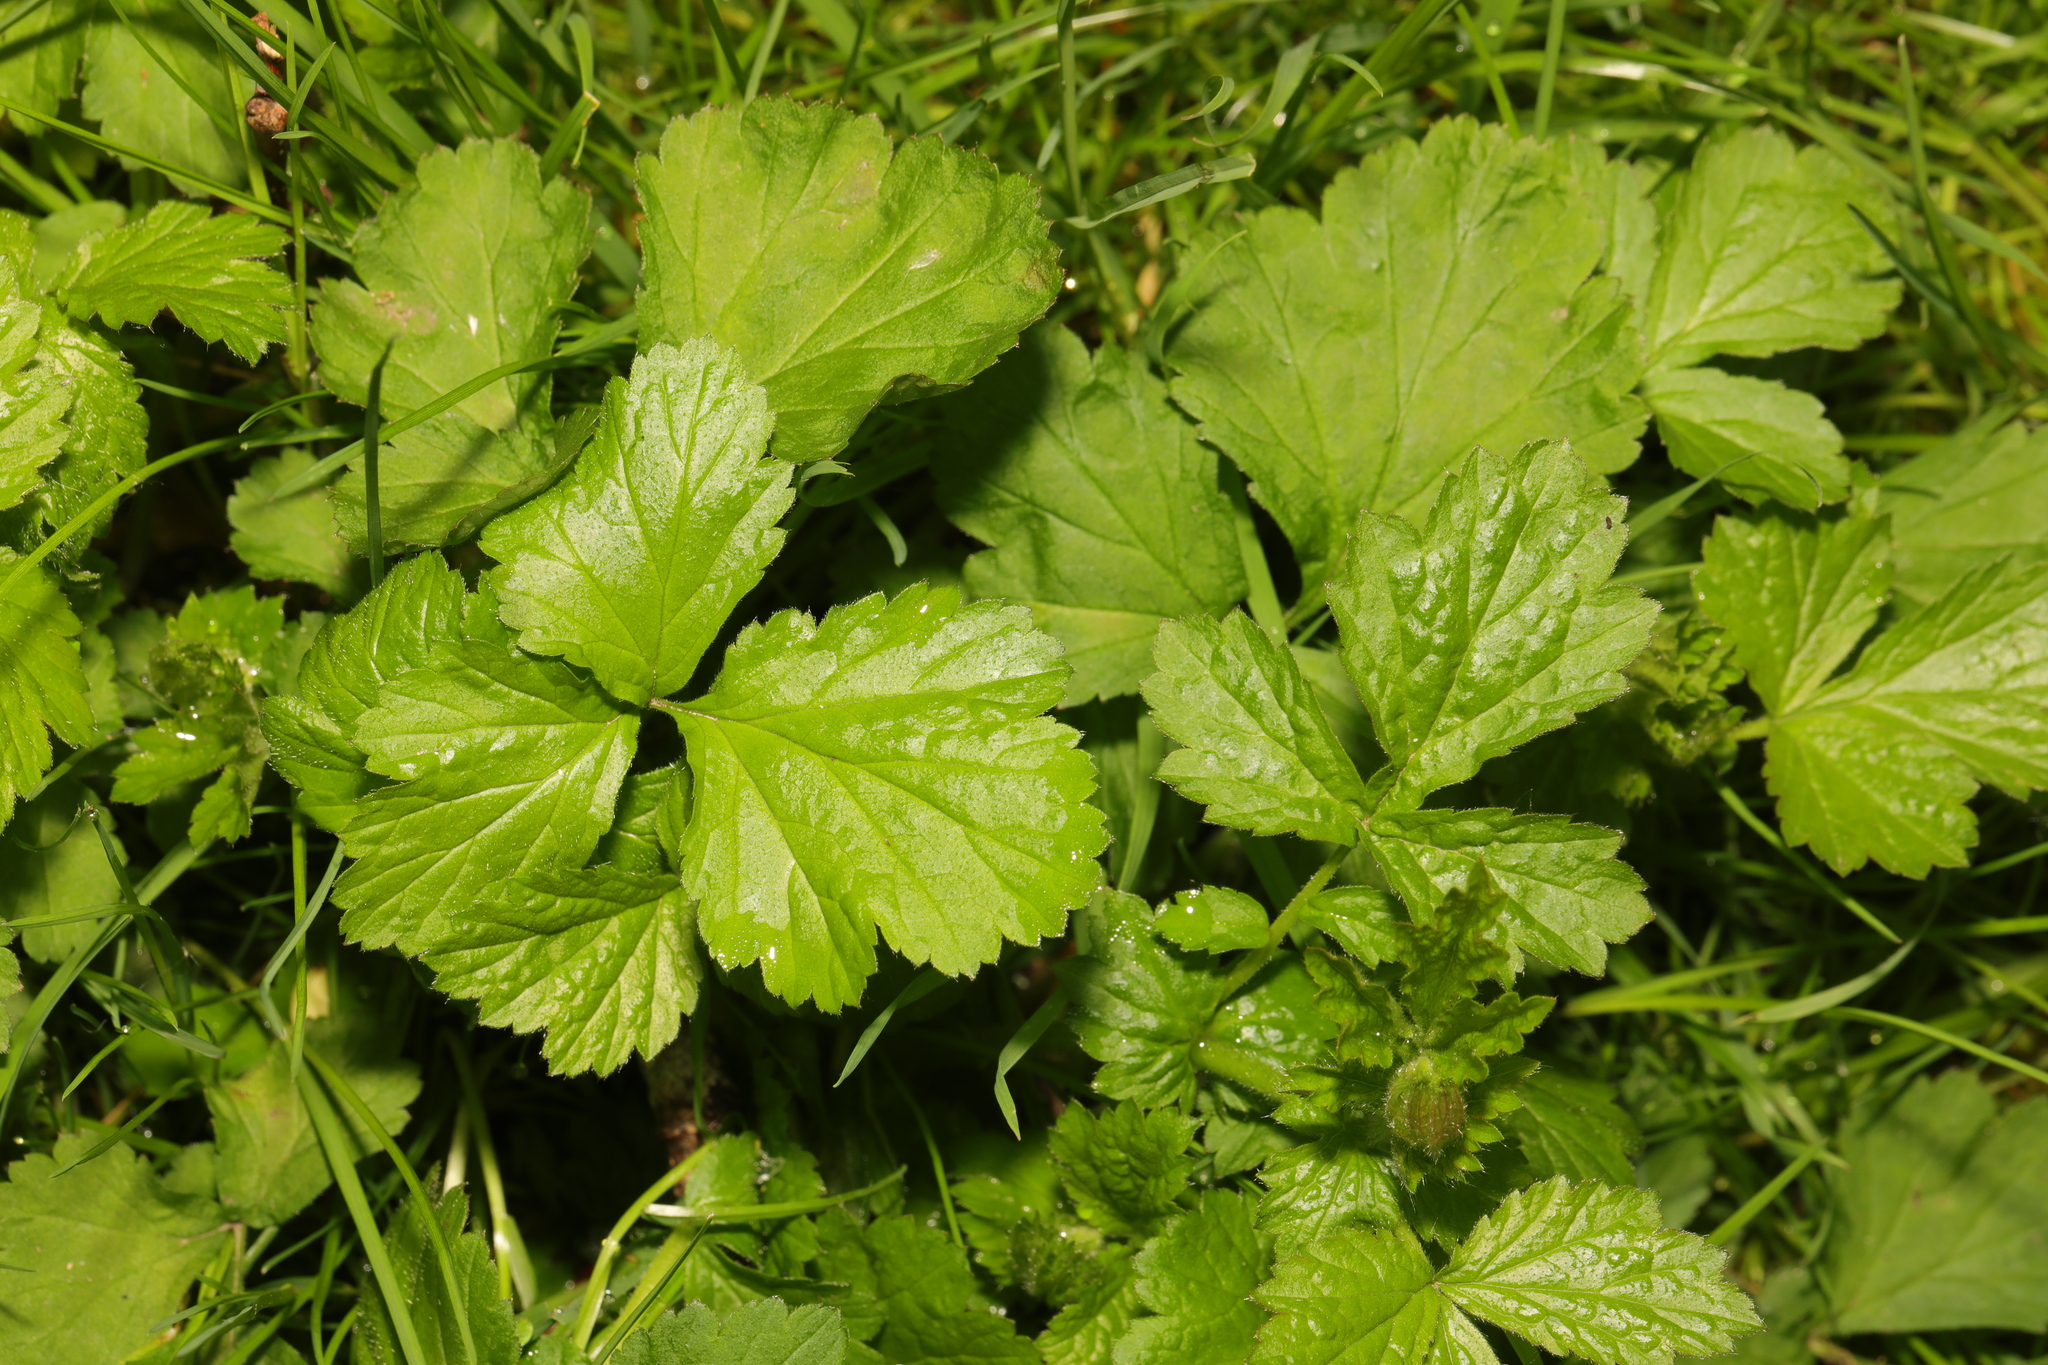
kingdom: Plantae
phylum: Tracheophyta
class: Magnoliopsida
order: Rosales
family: Rosaceae
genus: Geum
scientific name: Geum urbanum
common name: Wood avens
